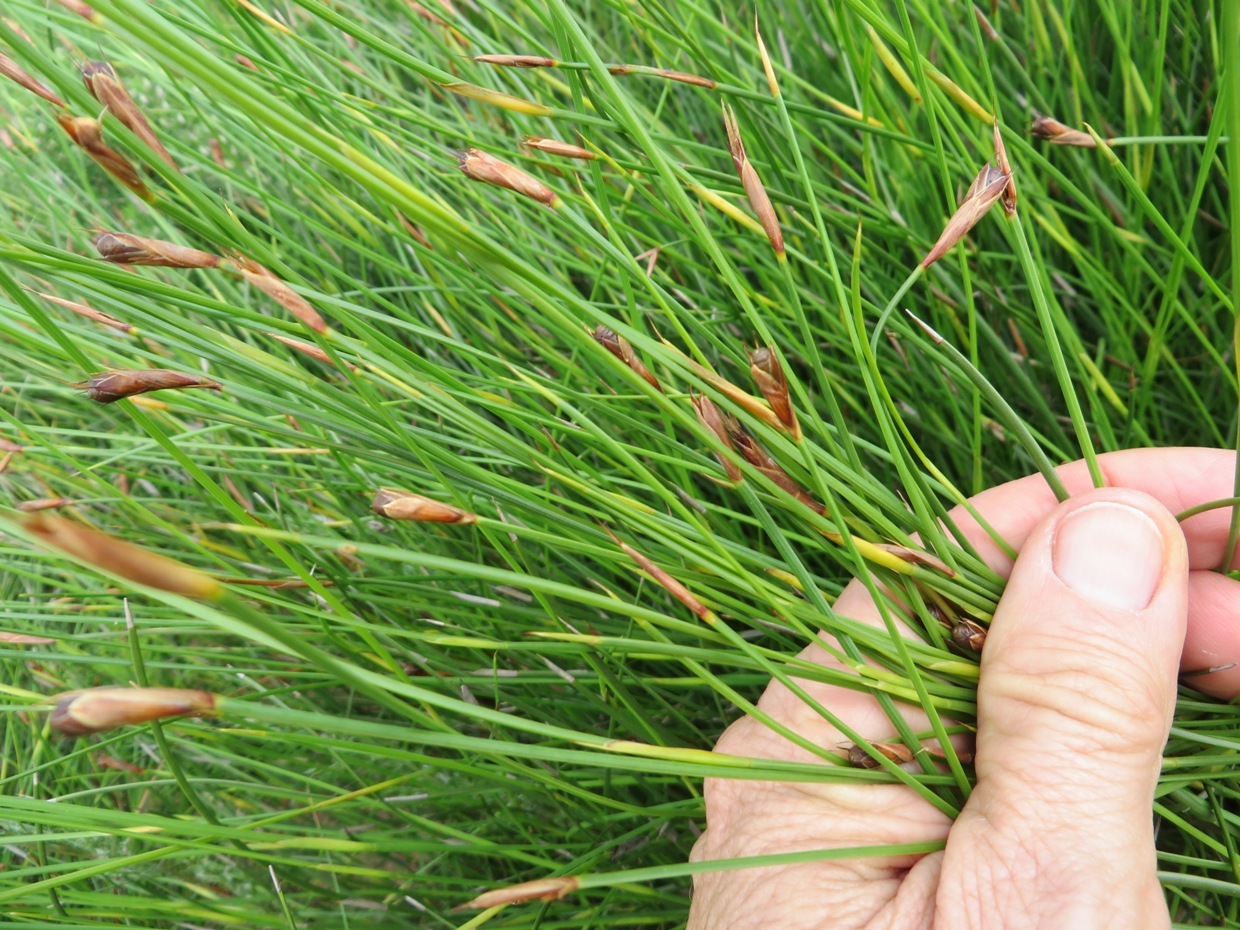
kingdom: Plantae
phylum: Tracheophyta
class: Liliopsida
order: Poales
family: Restionaceae
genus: Hypodiscus
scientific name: Hypodiscus willdenowia
